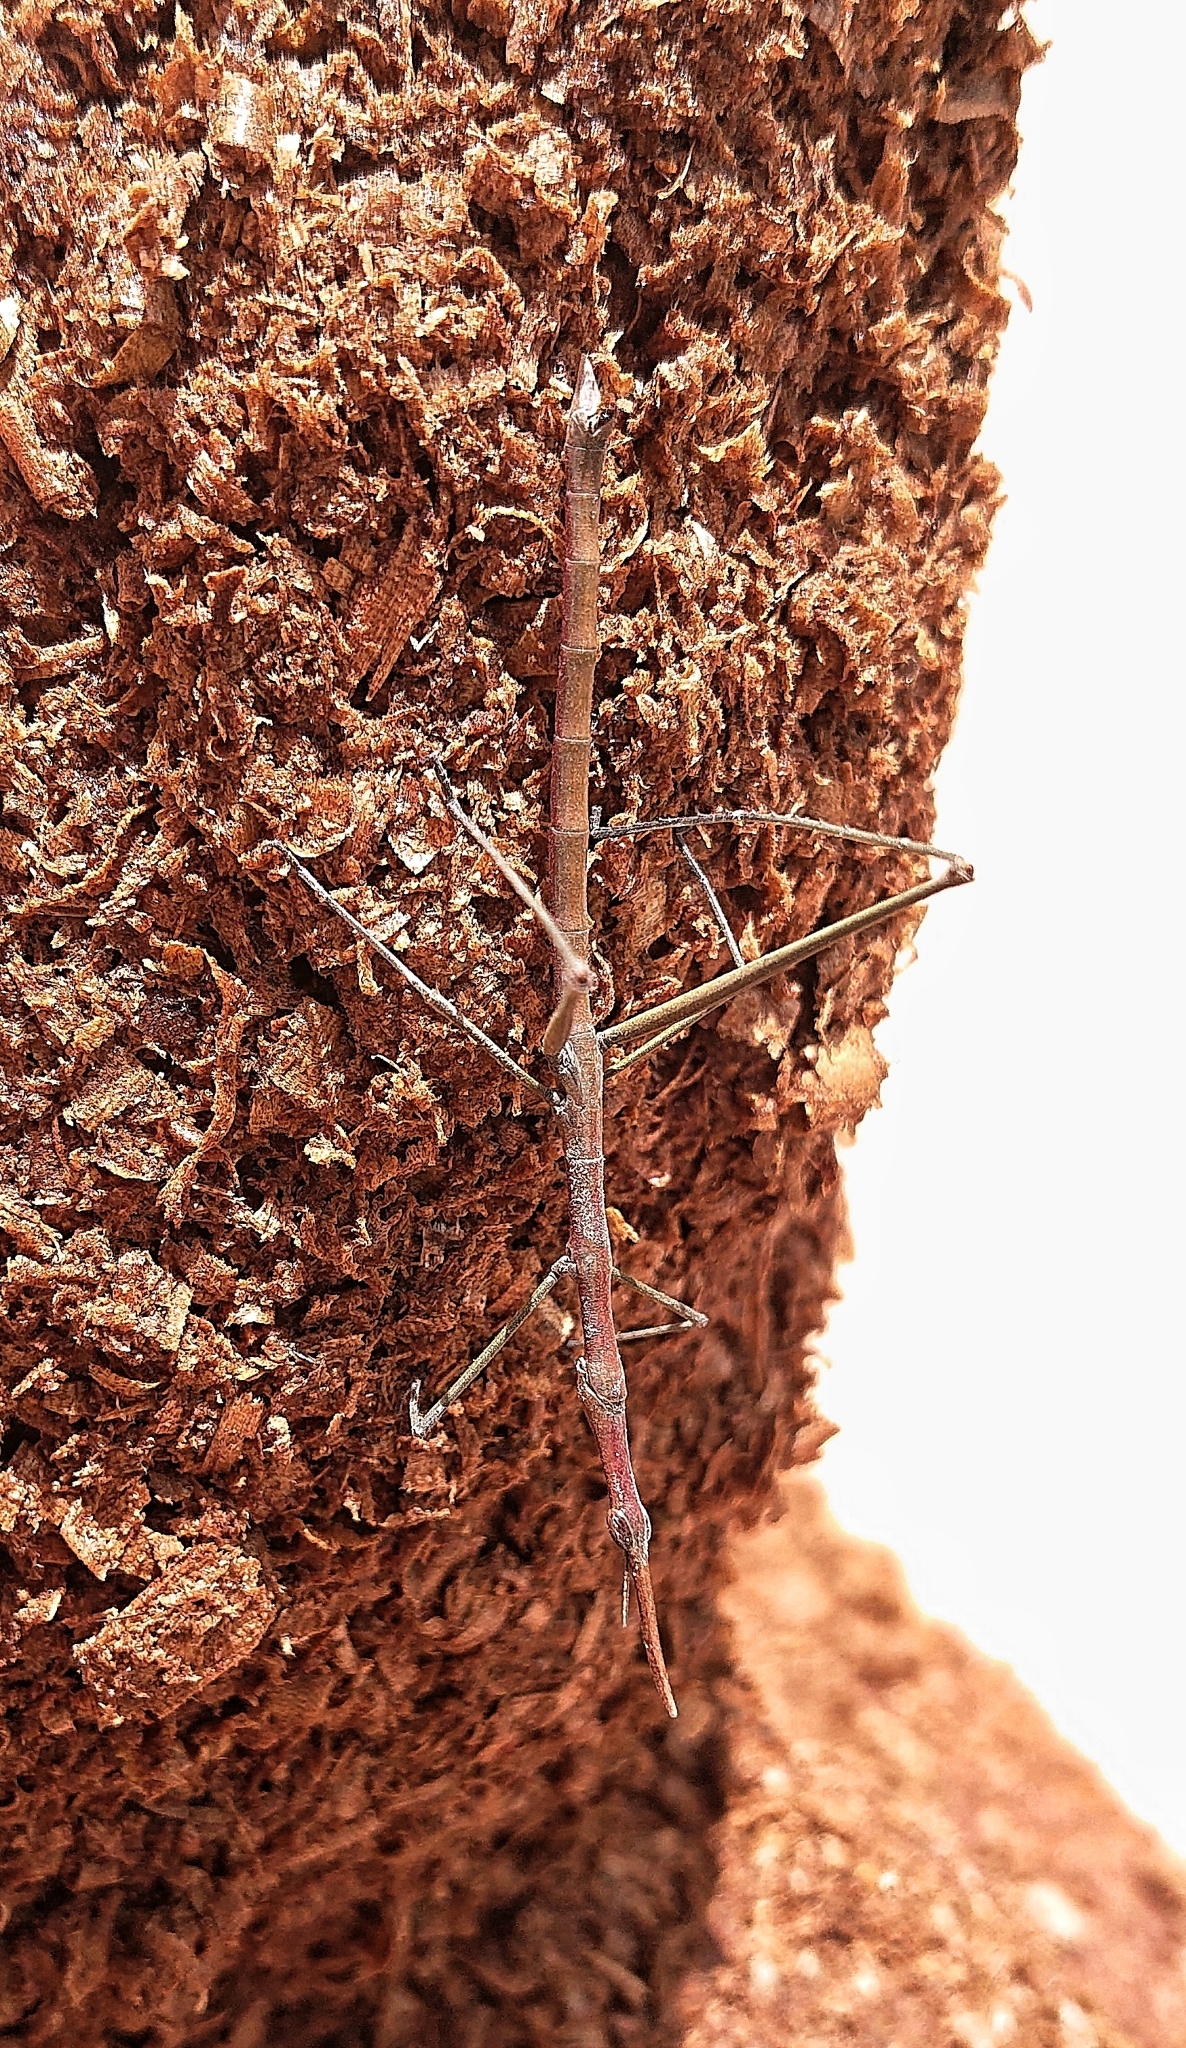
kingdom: Animalia
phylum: Arthropoda
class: Insecta
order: Orthoptera
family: Proscopiidae
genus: Microcoema
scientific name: Microcoema acuminata
